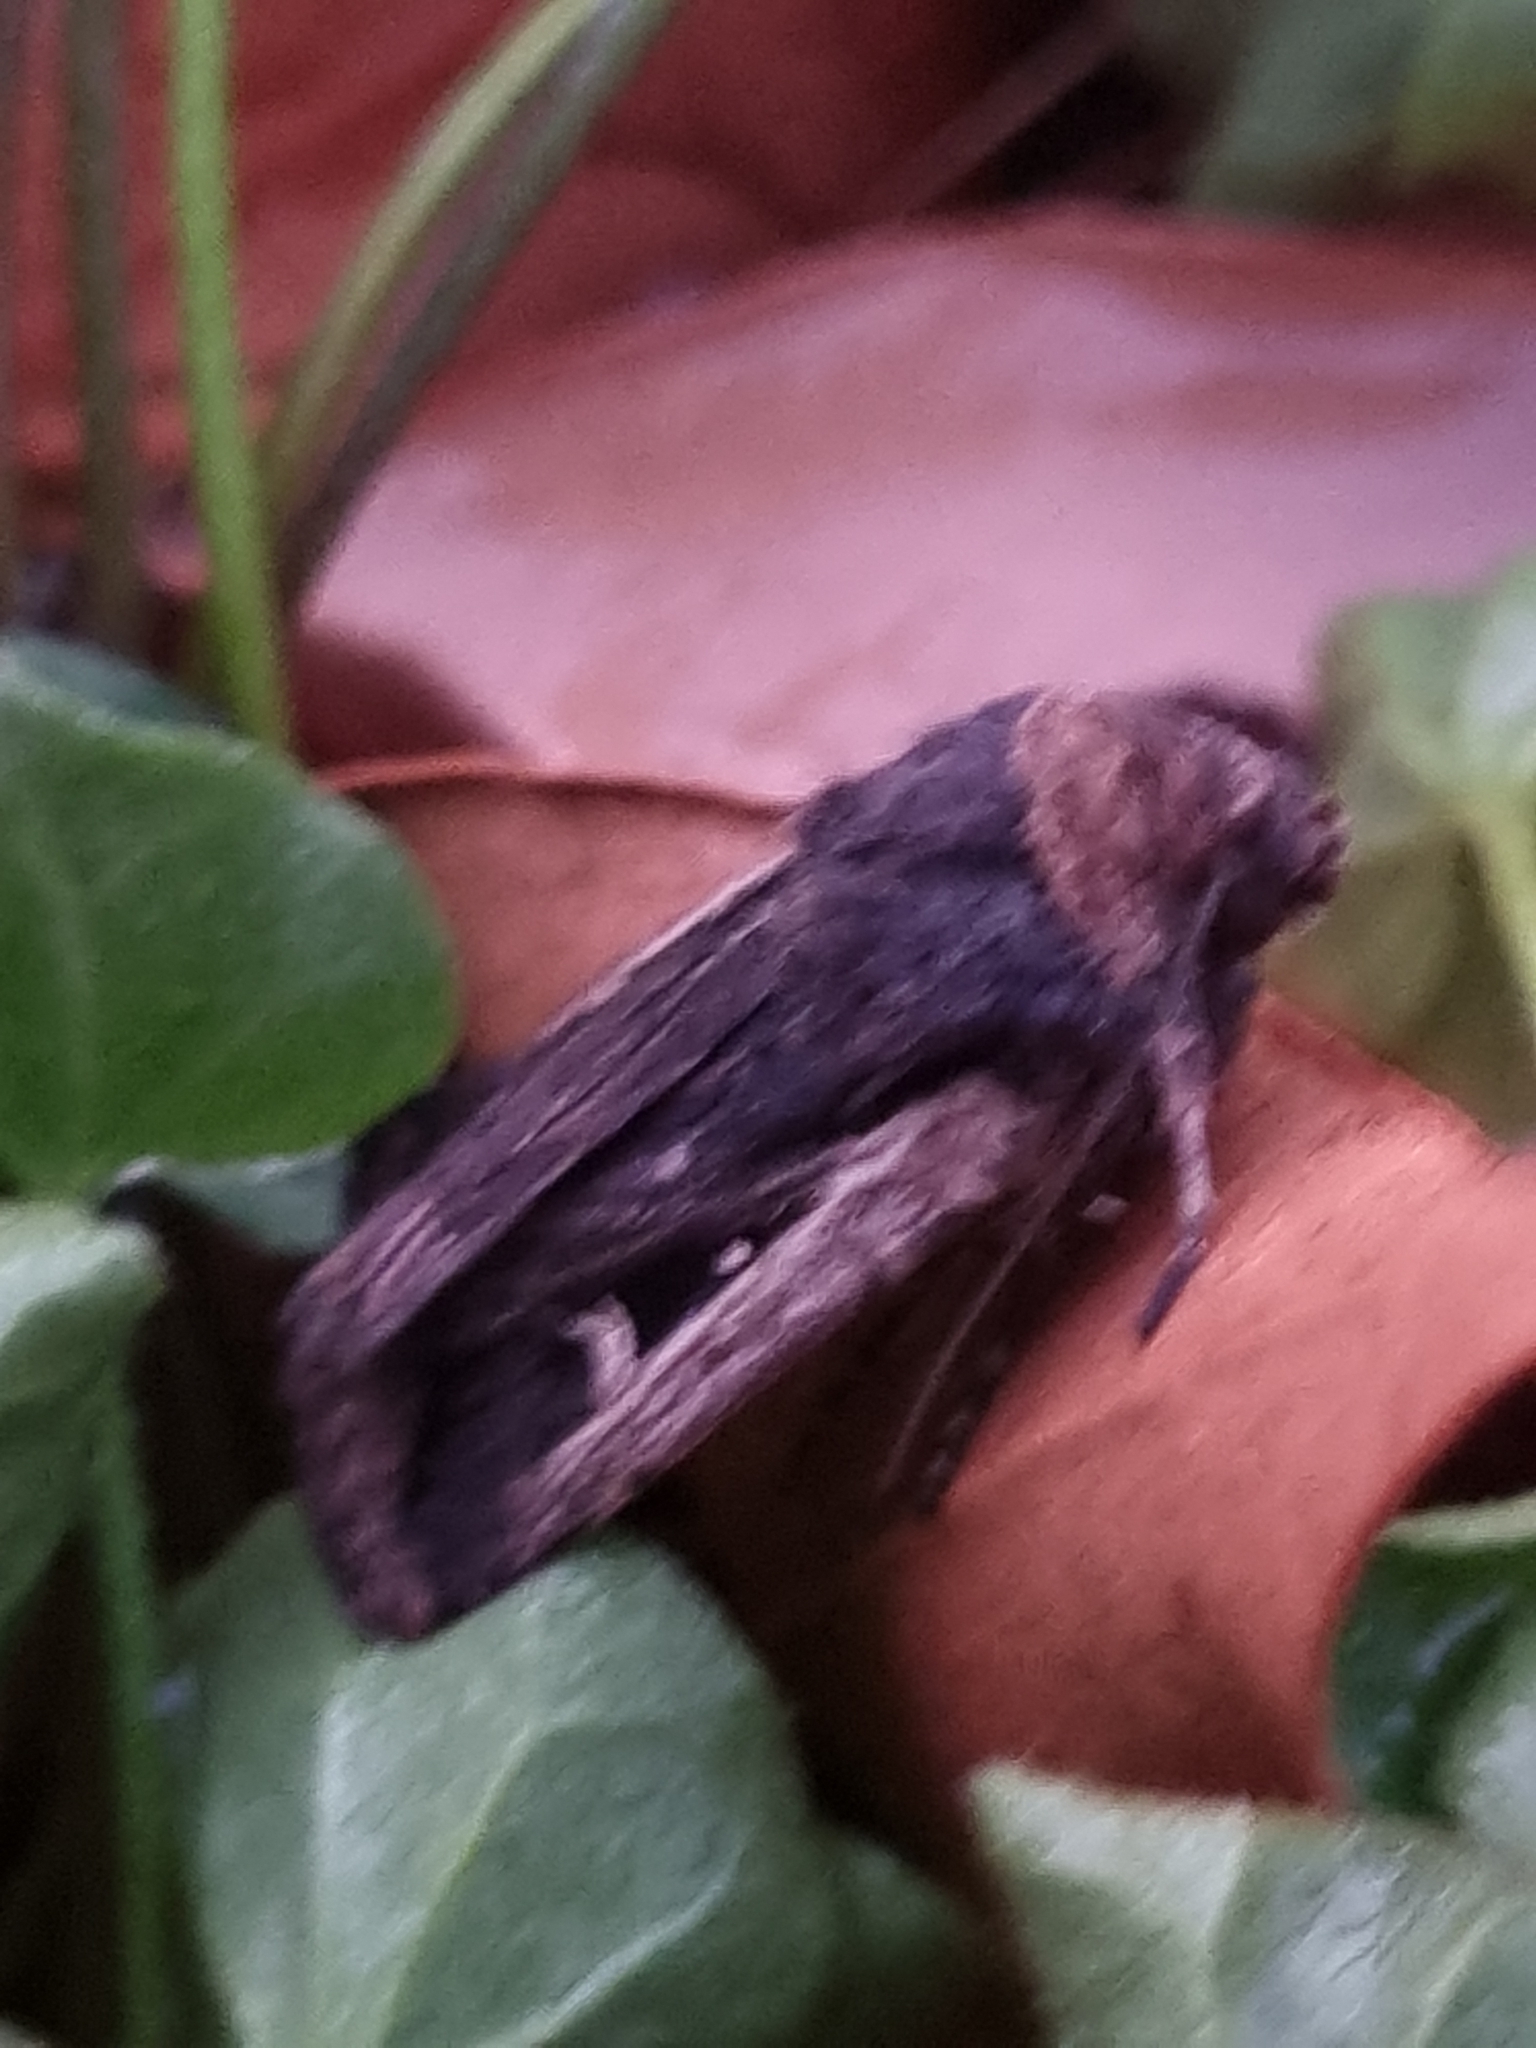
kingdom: Animalia
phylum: Arthropoda
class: Insecta
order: Lepidoptera
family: Noctuidae
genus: Proteuxoa
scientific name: Proteuxoa tortisigna
